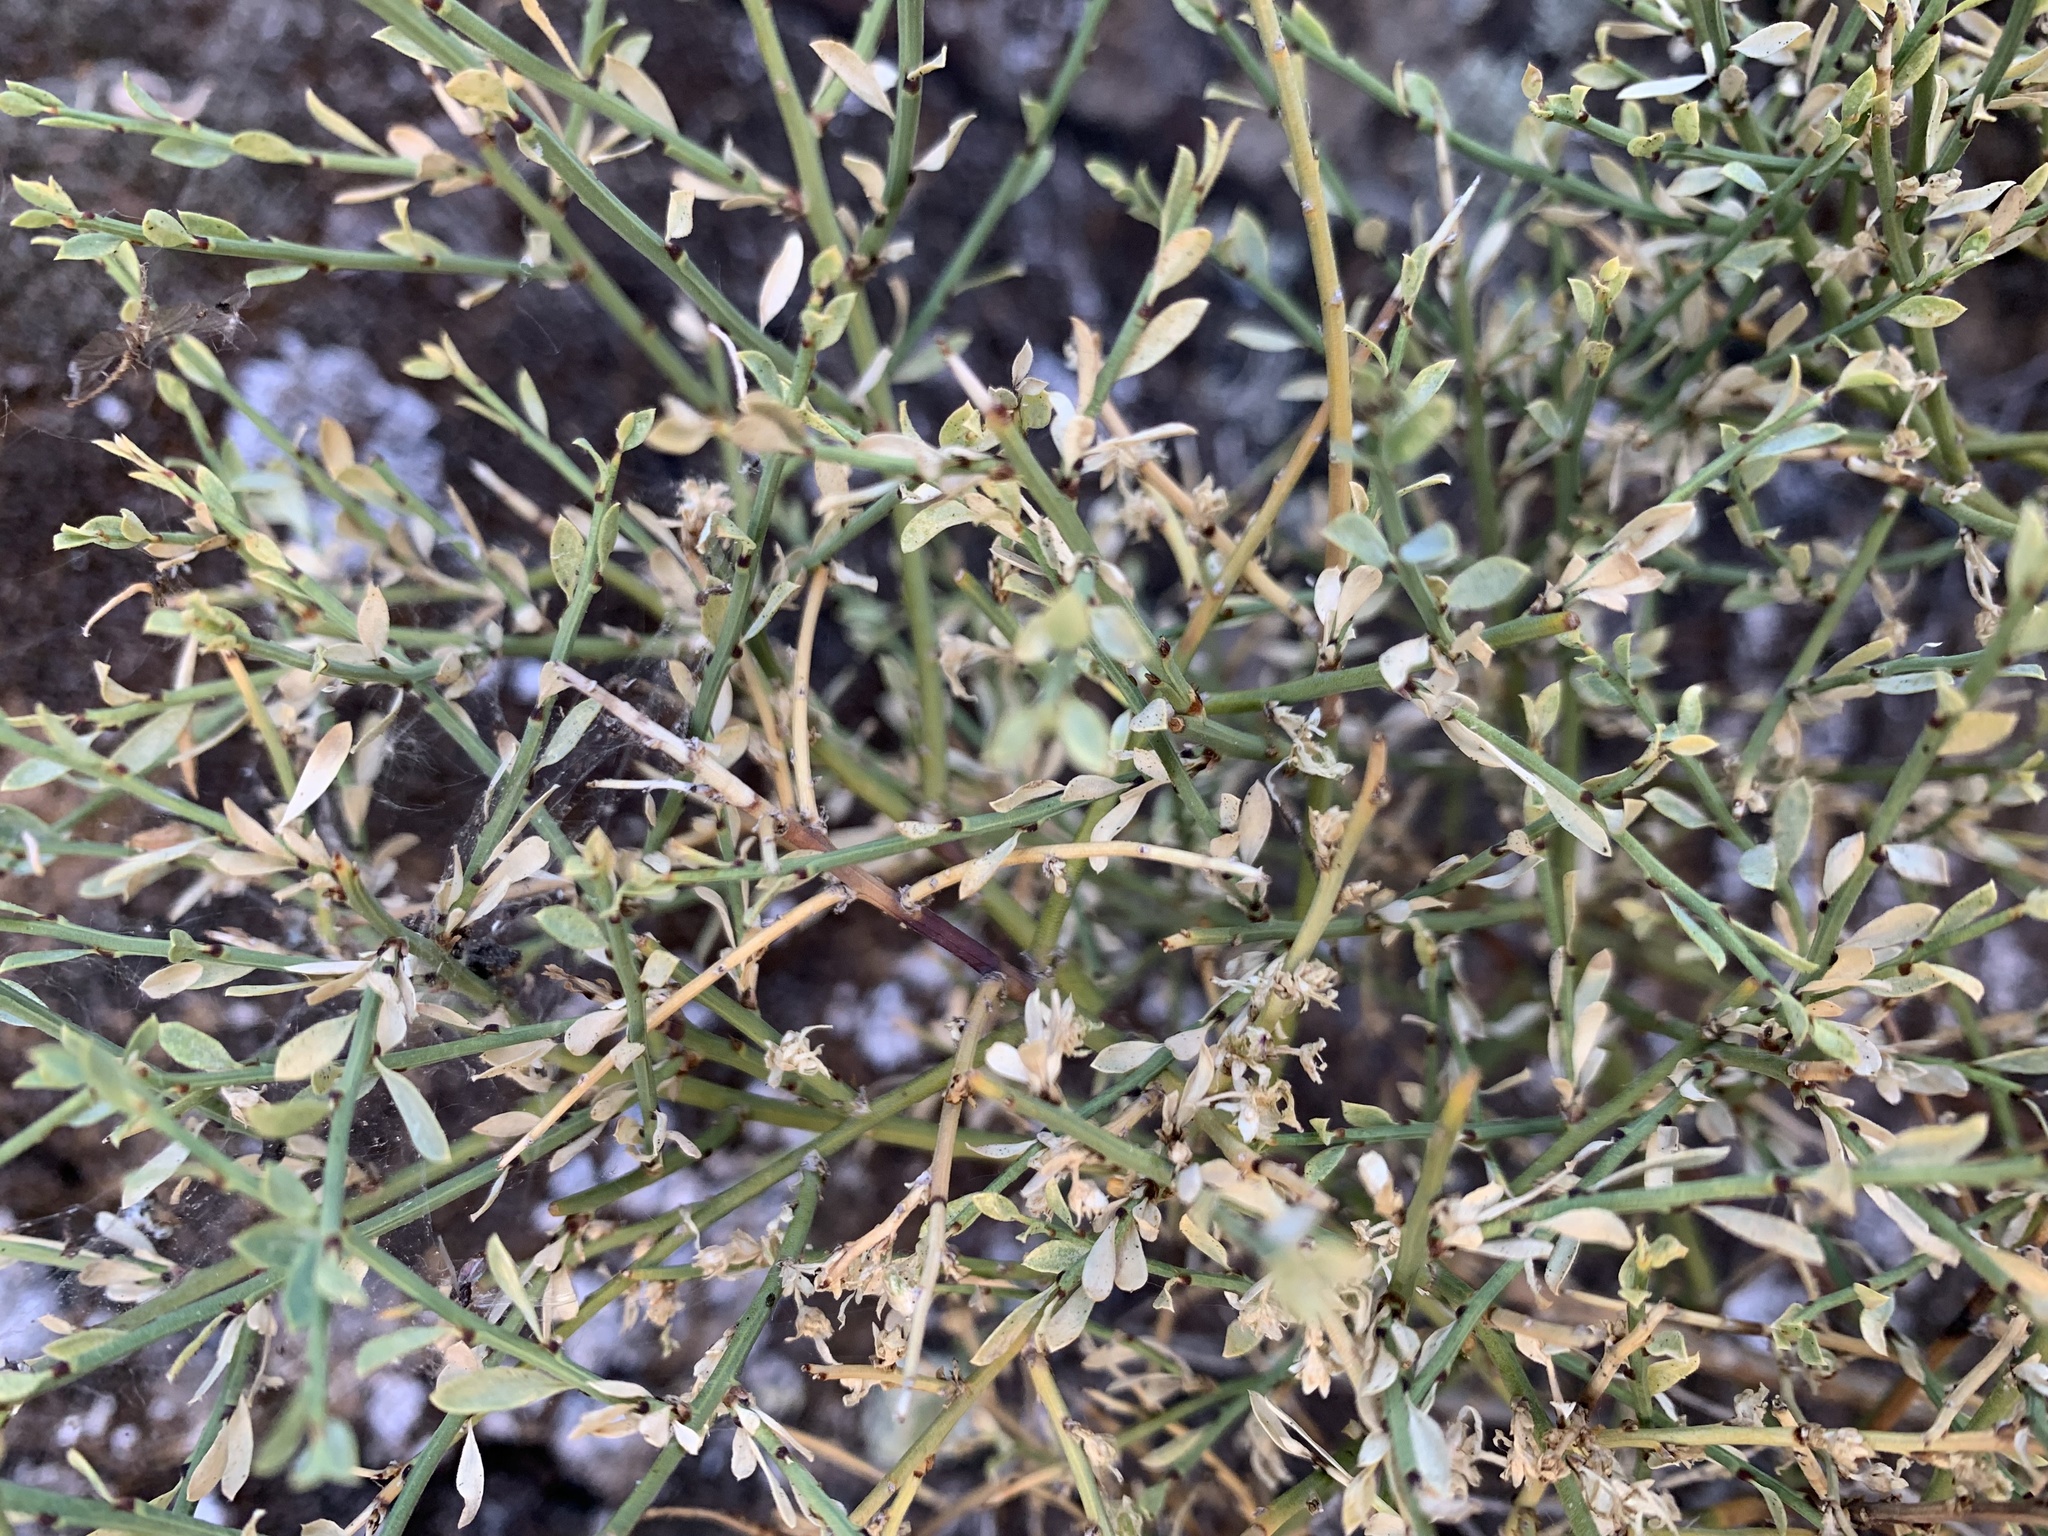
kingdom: Plantae
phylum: Tracheophyta
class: Magnoliopsida
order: Crossosomatales
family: Crossosomataceae
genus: Glossopetalon
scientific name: Glossopetalon spinescens
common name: Spring greasebush
